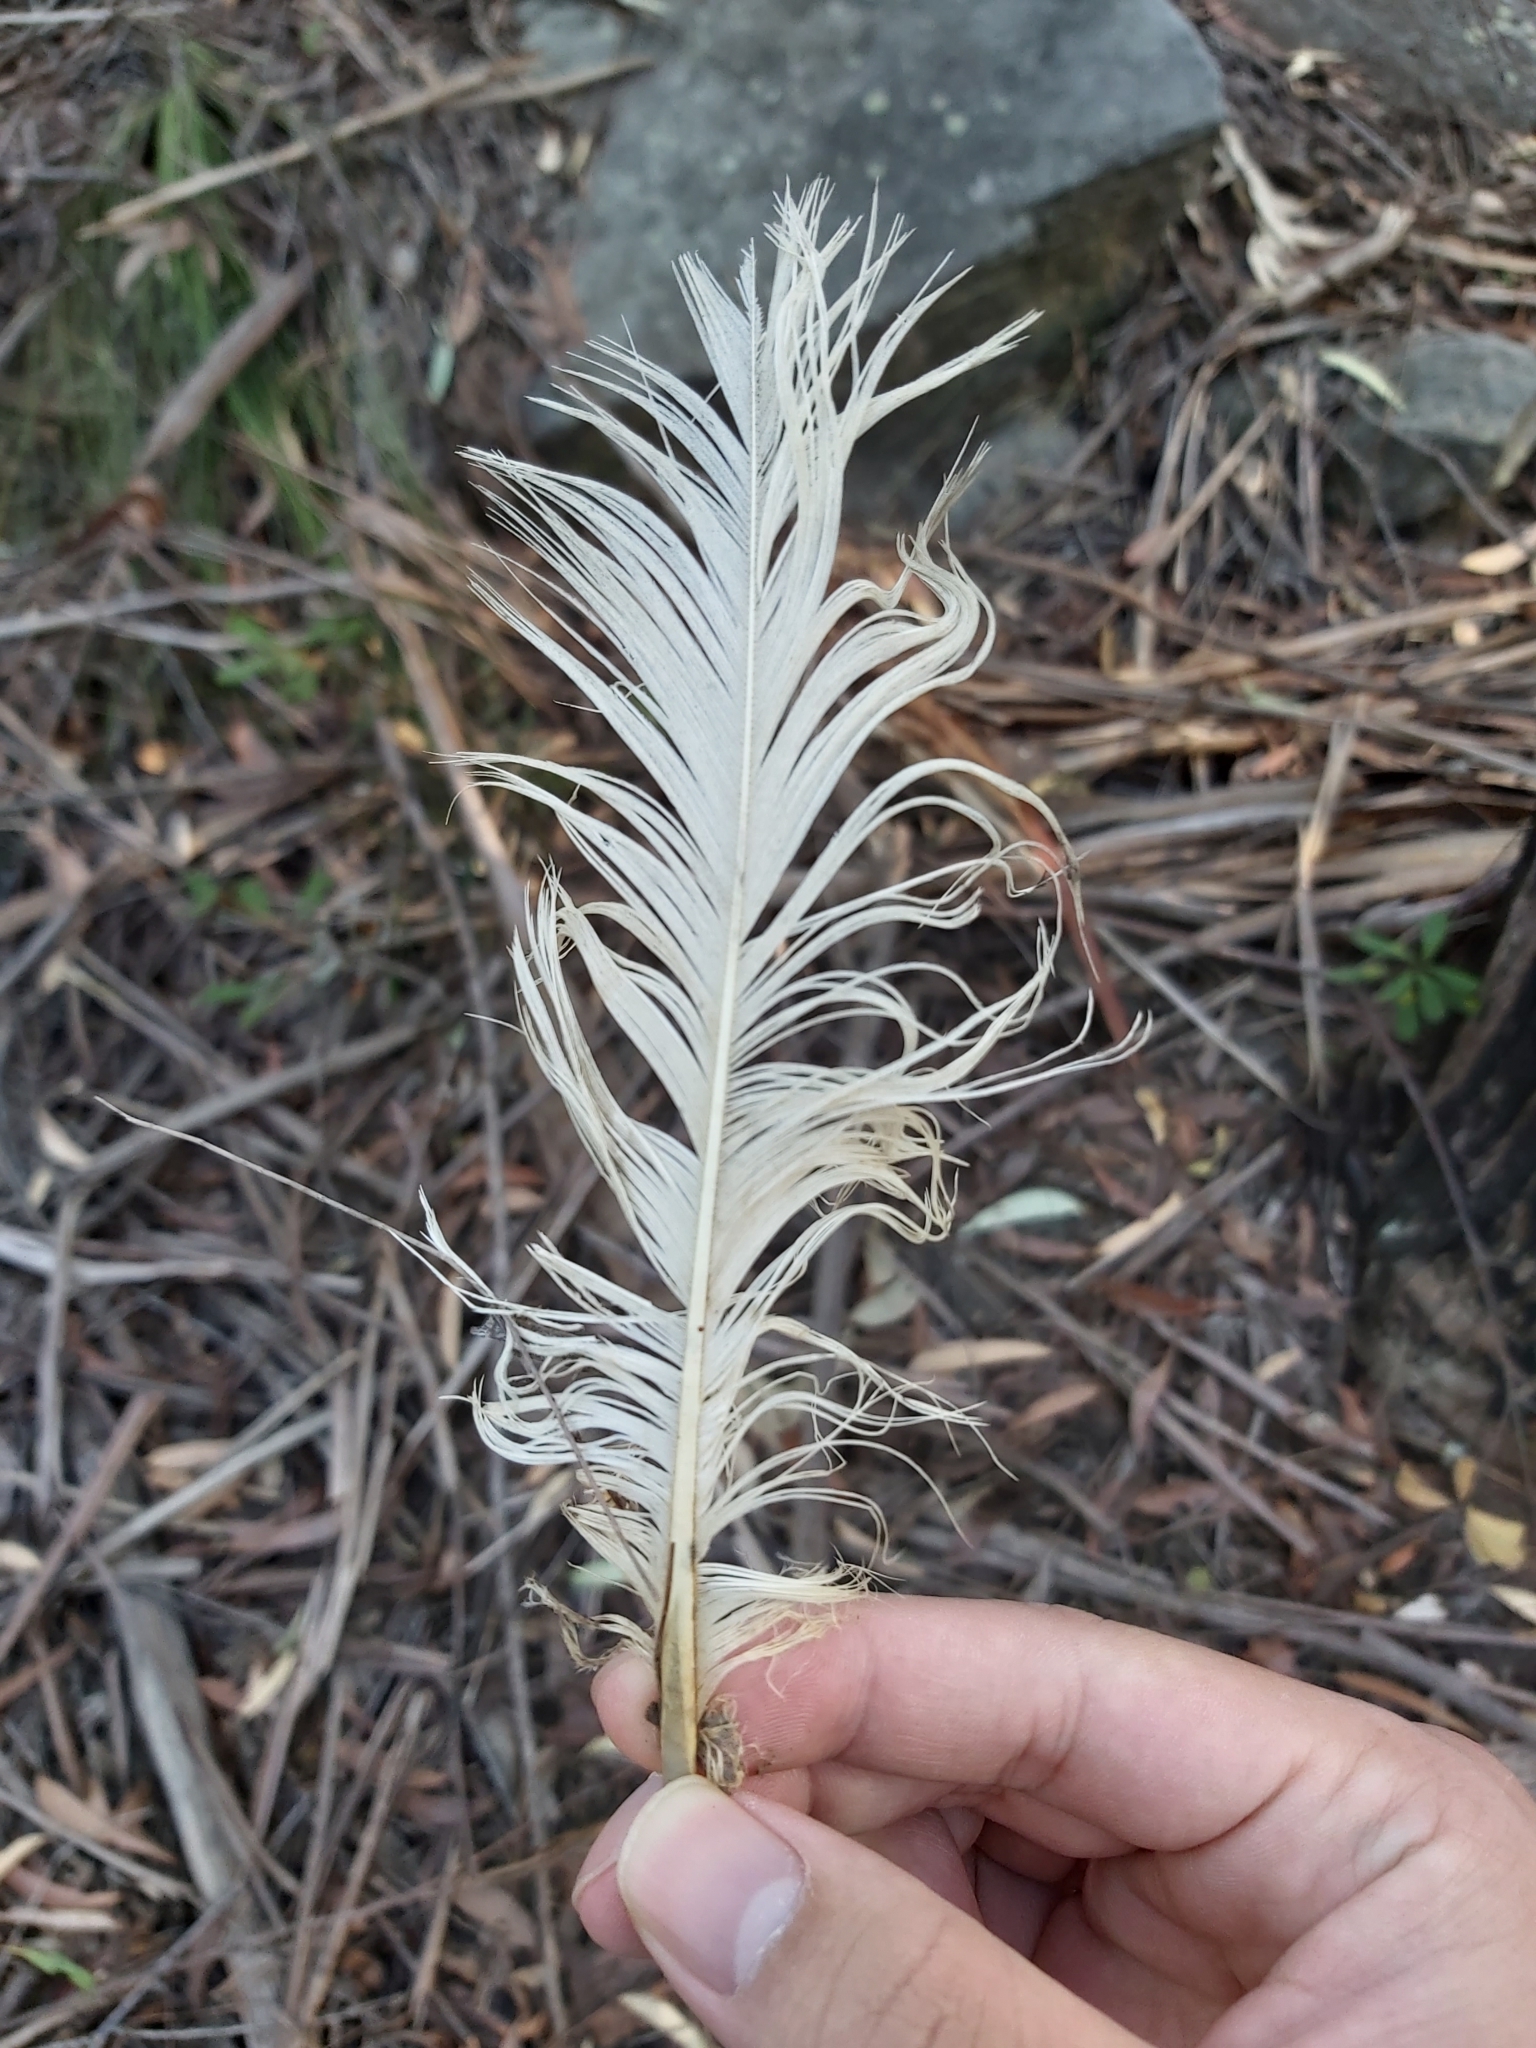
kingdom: Animalia
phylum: Chordata
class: Aves
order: Psittaciformes
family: Psittacidae
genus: Cacatua
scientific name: Cacatua galerita
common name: Sulphur-crested cockatoo
